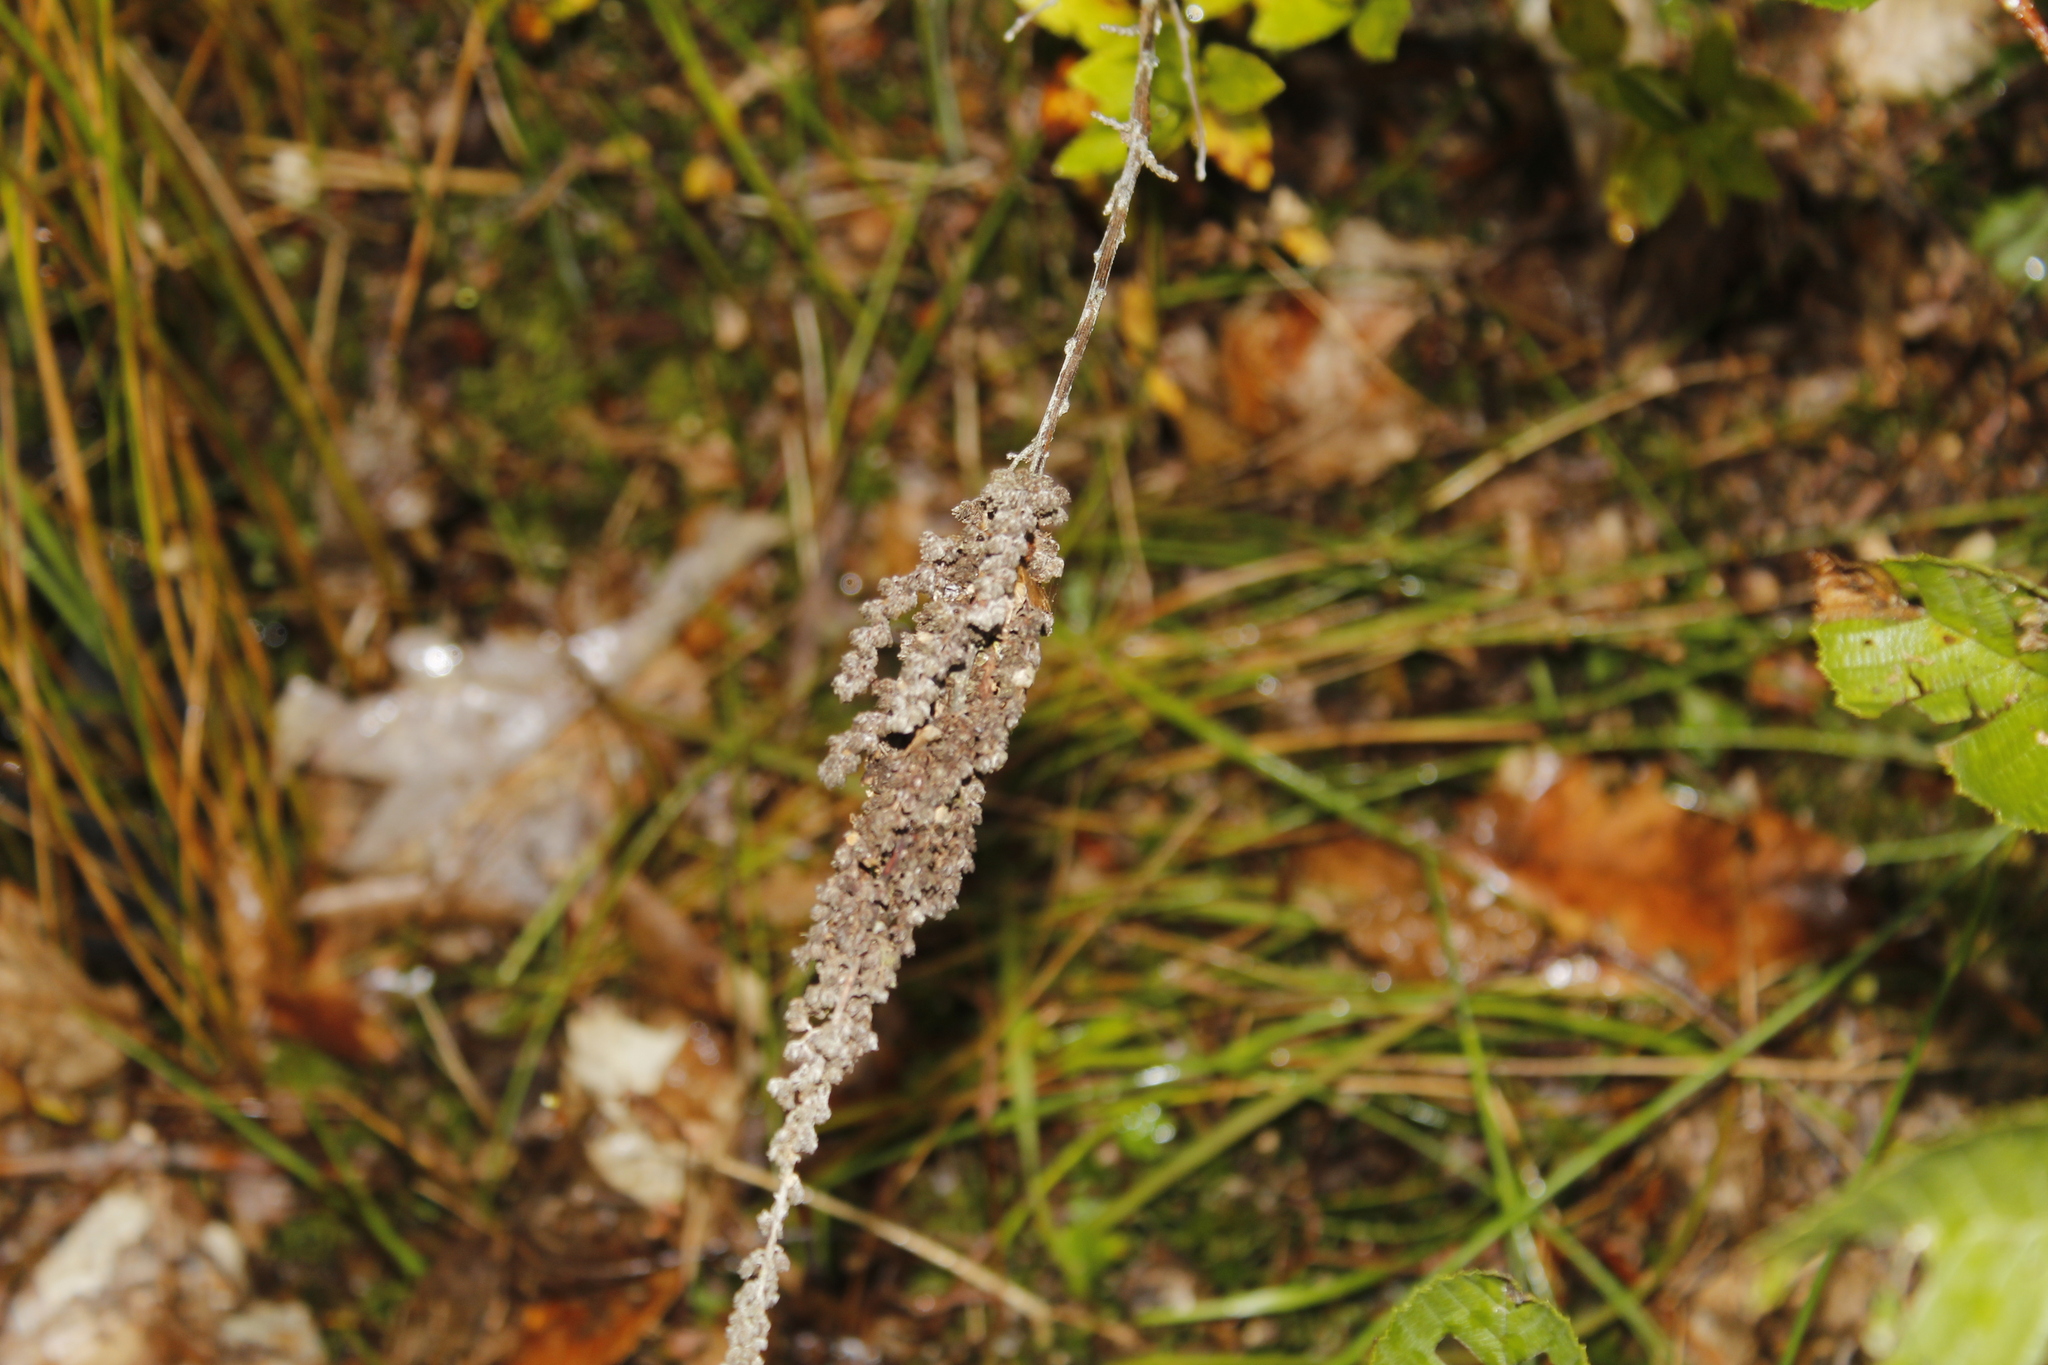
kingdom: Plantae
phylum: Tracheophyta
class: Magnoliopsida
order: Rosales
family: Rosaceae
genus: Spiraea
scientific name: Spiraea tomentosa
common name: Hardhack
